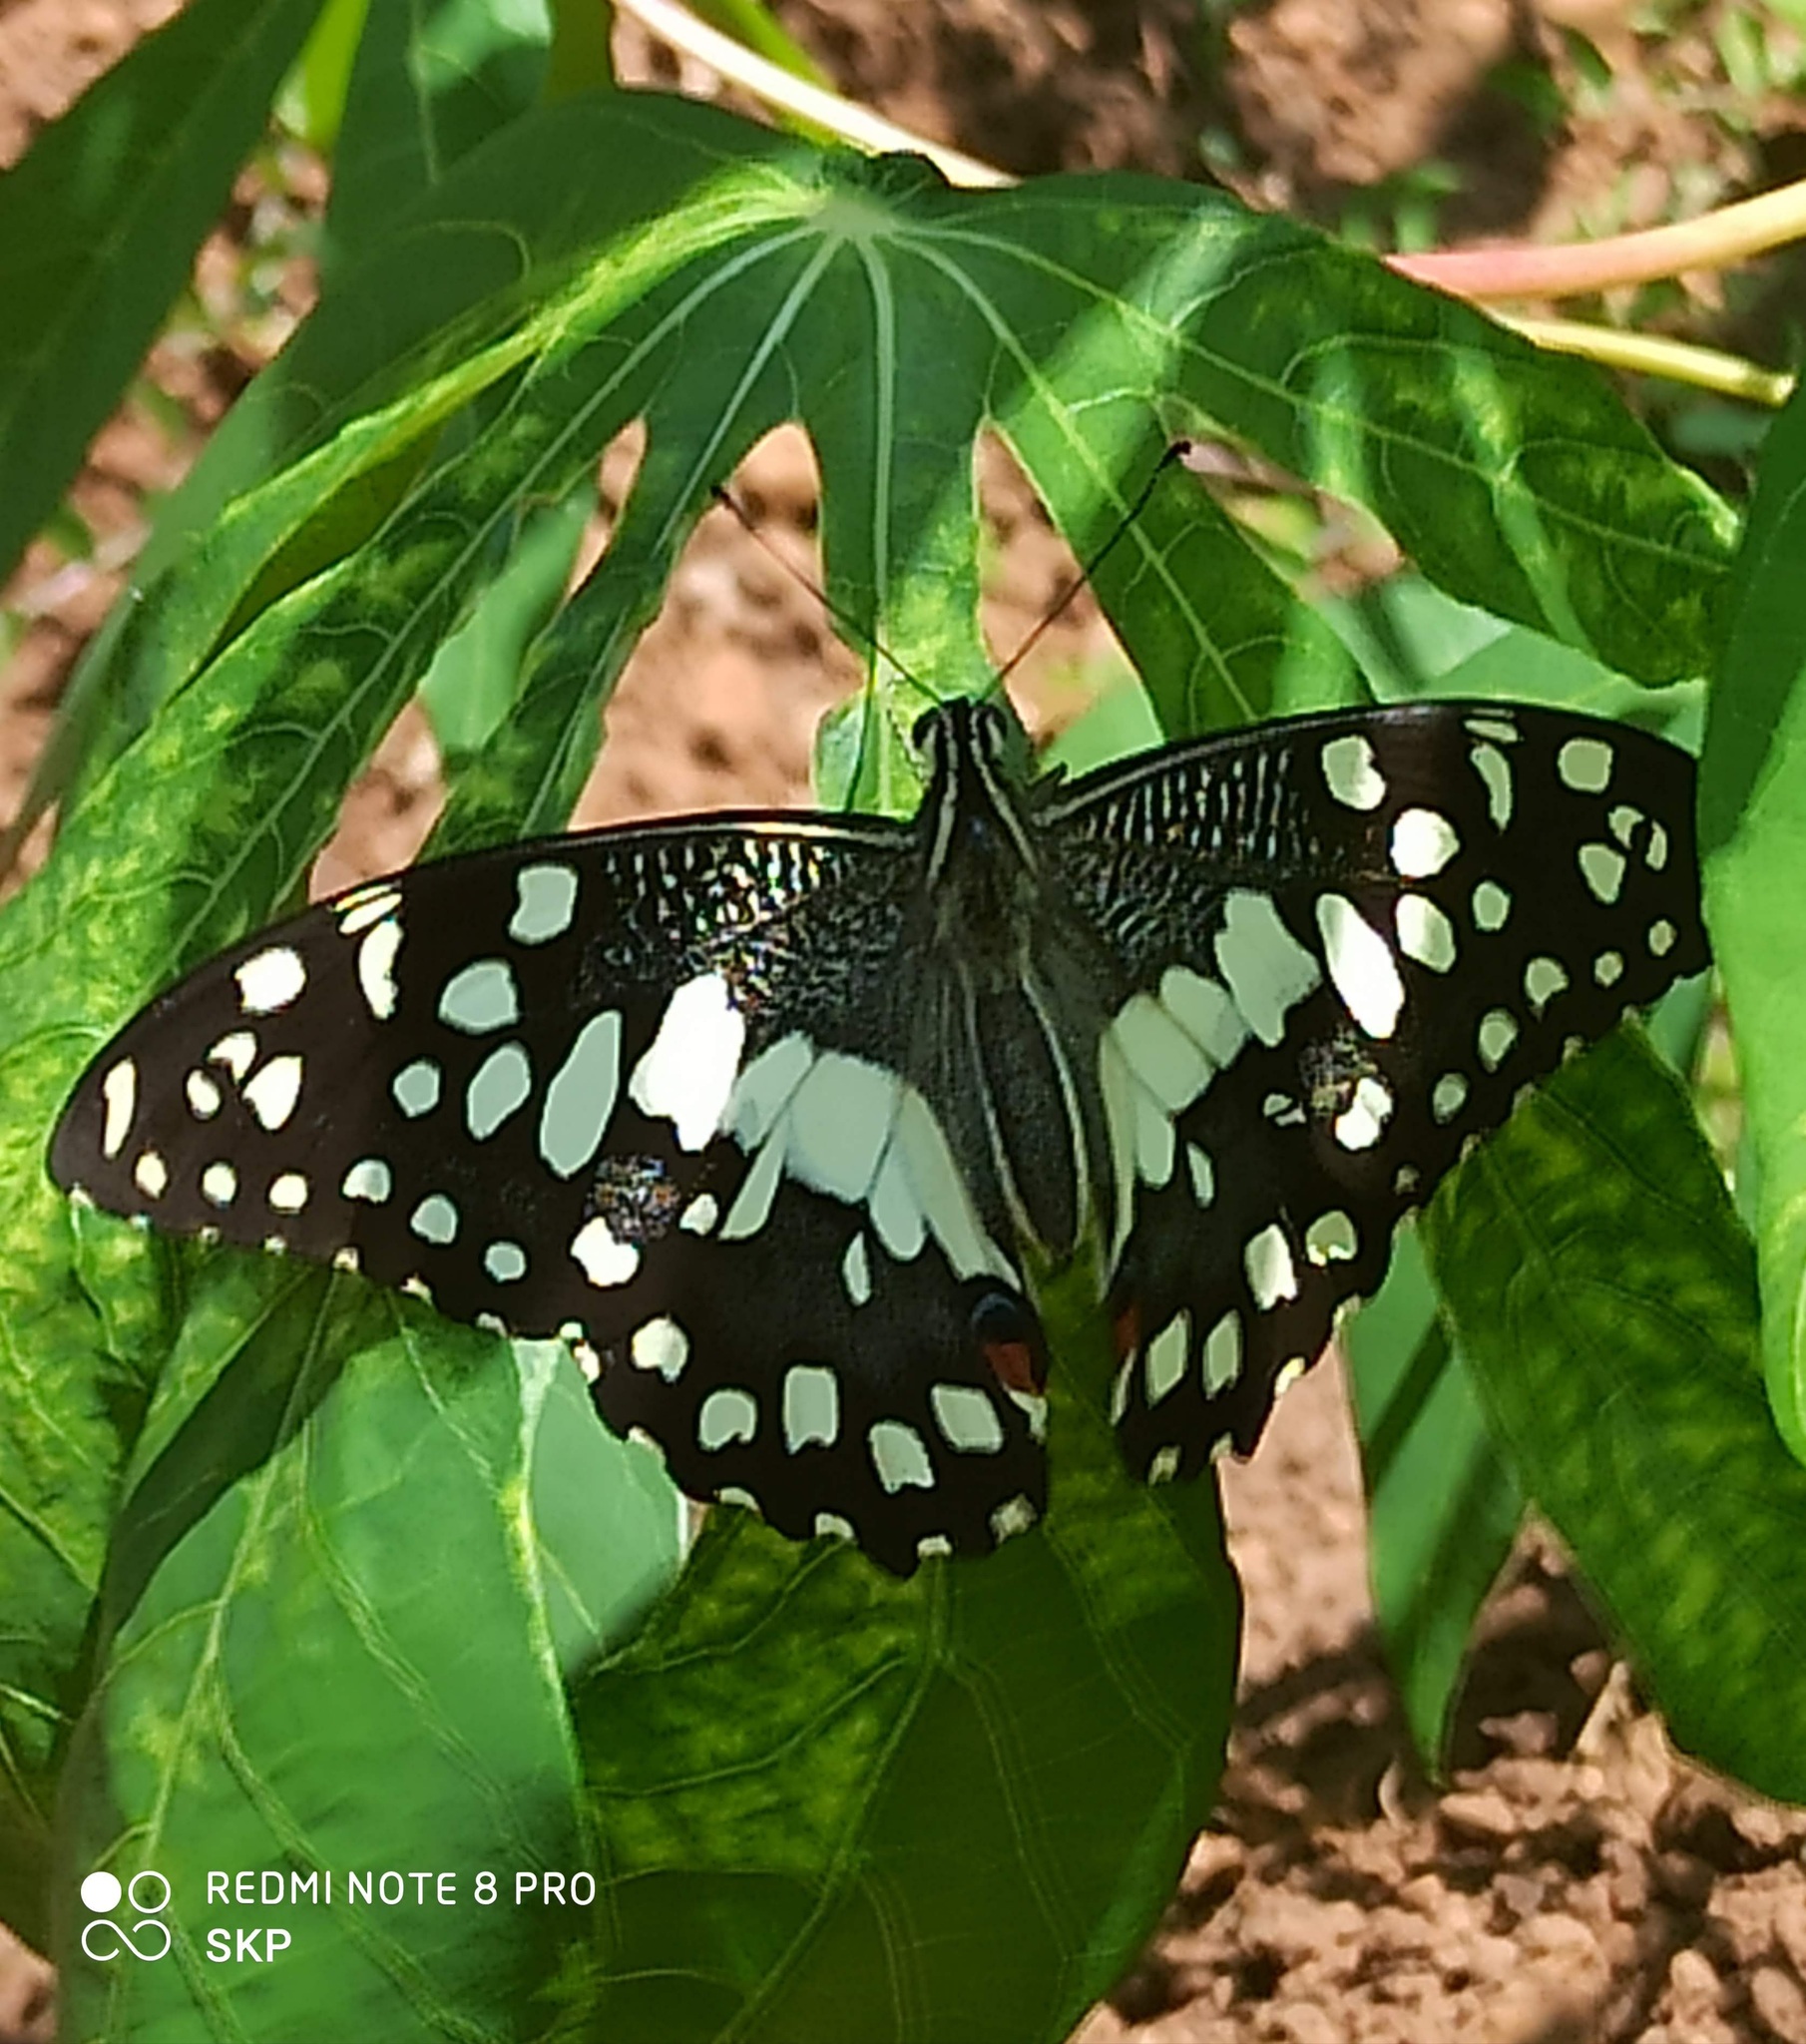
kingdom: Animalia
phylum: Arthropoda
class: Insecta
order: Lepidoptera
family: Papilionidae
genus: Papilio
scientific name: Papilio demoleus
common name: Lime butterfly
